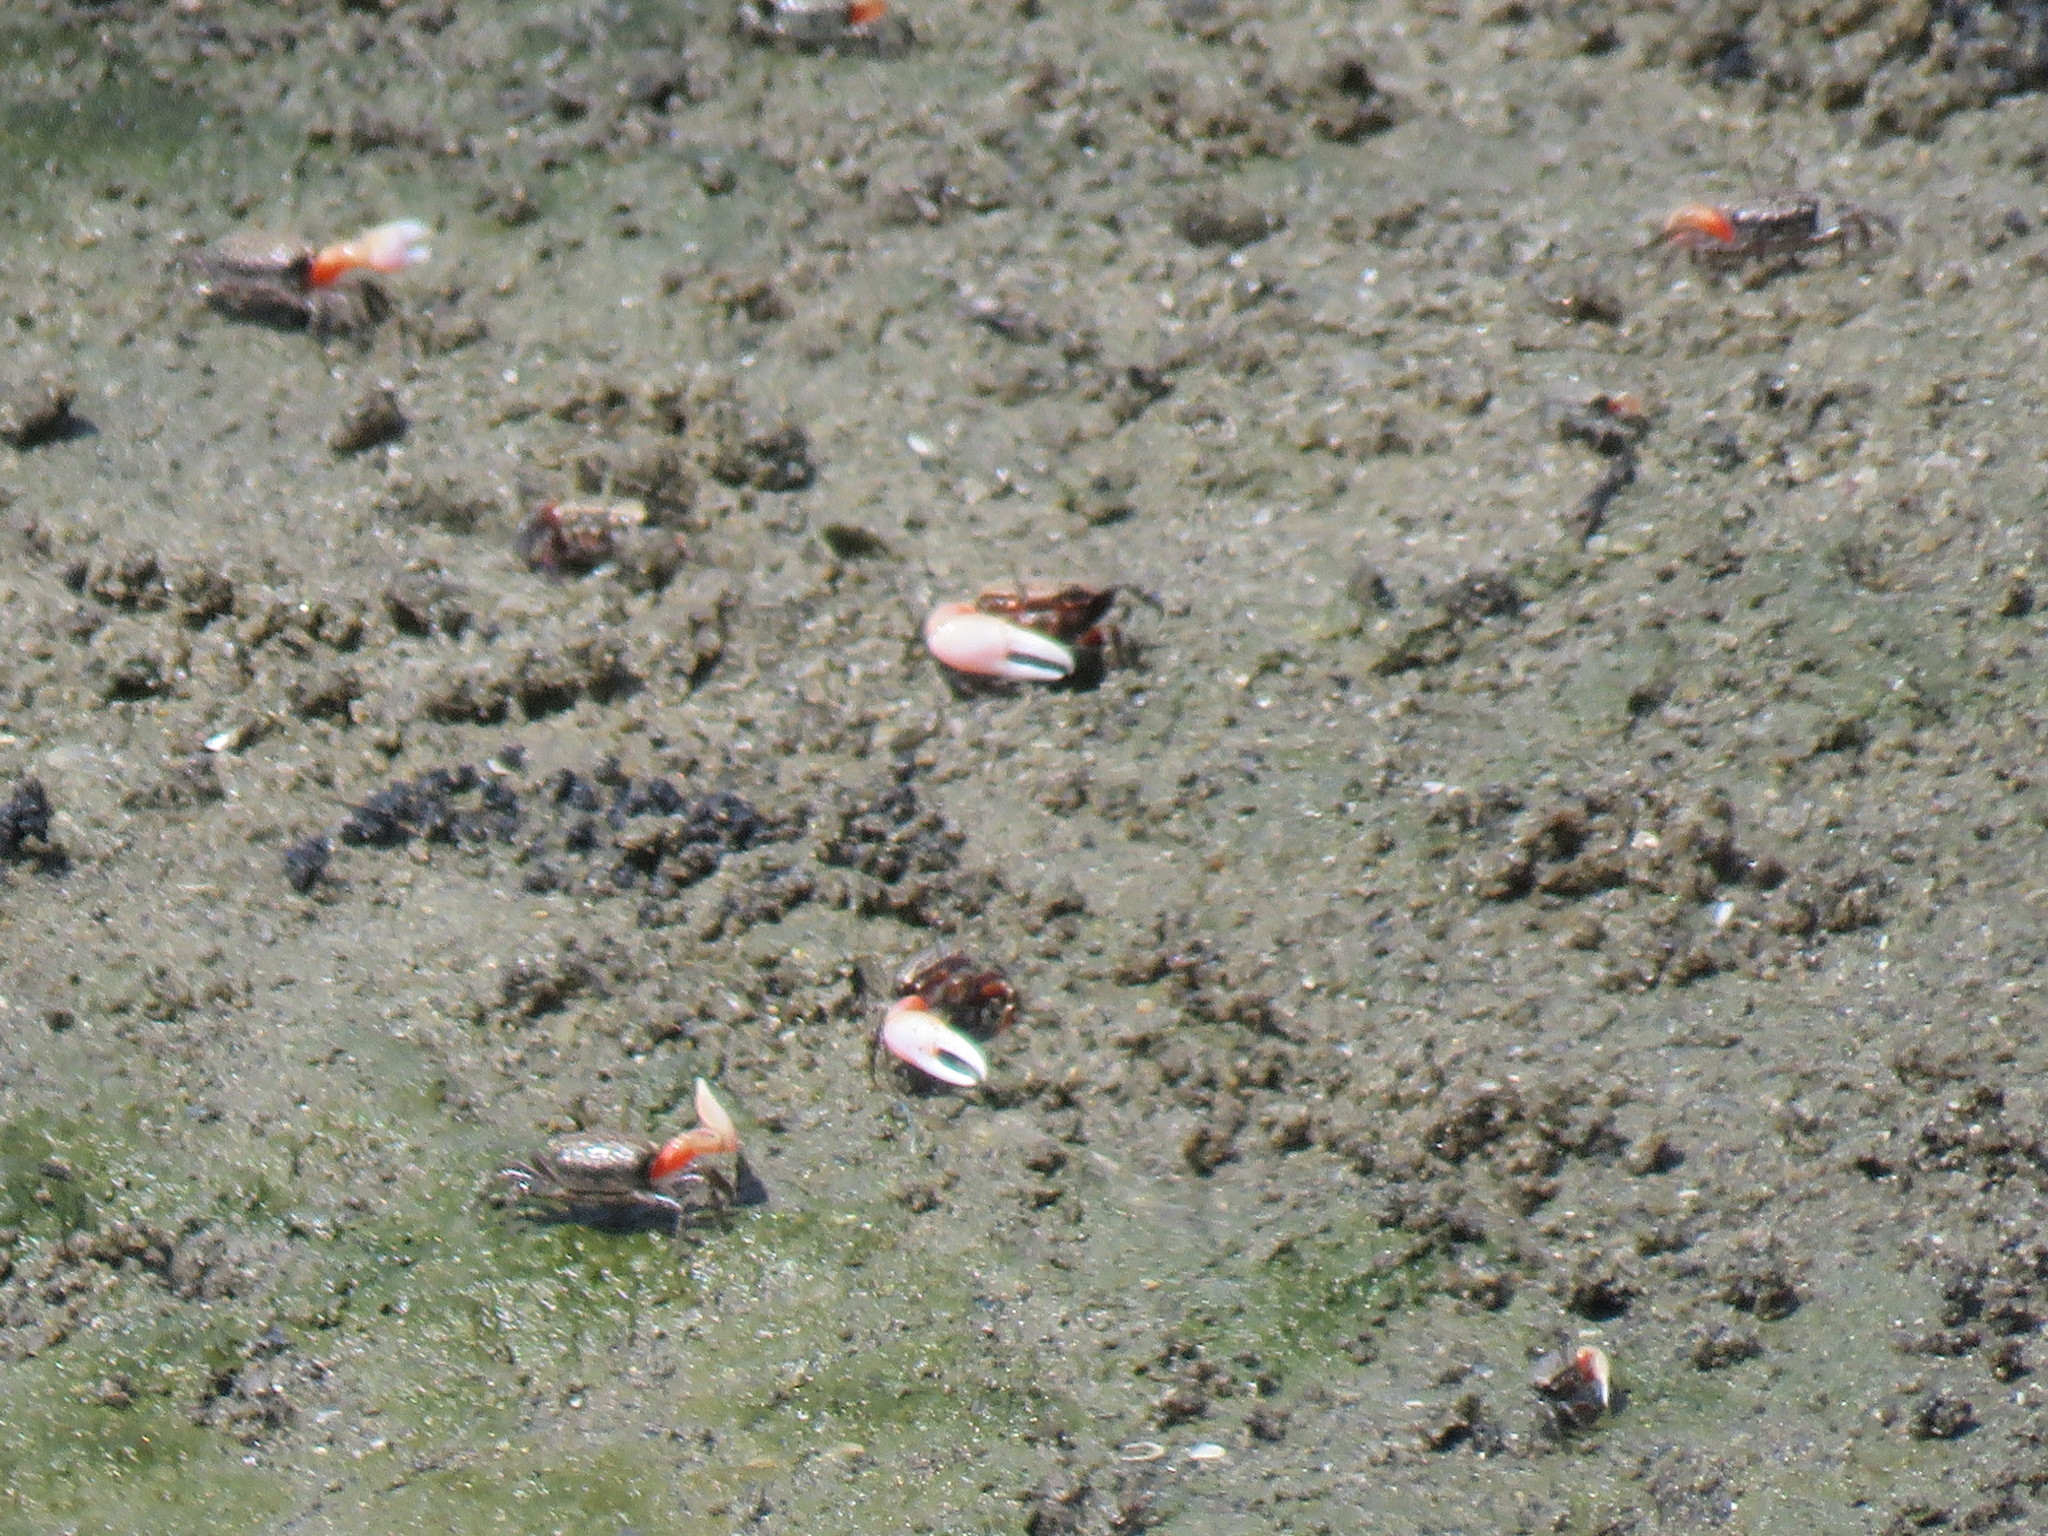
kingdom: Animalia
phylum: Arthropoda
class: Malacostraca
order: Decapoda
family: Ocypodidae
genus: Austruca
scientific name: Austruca annulipes
